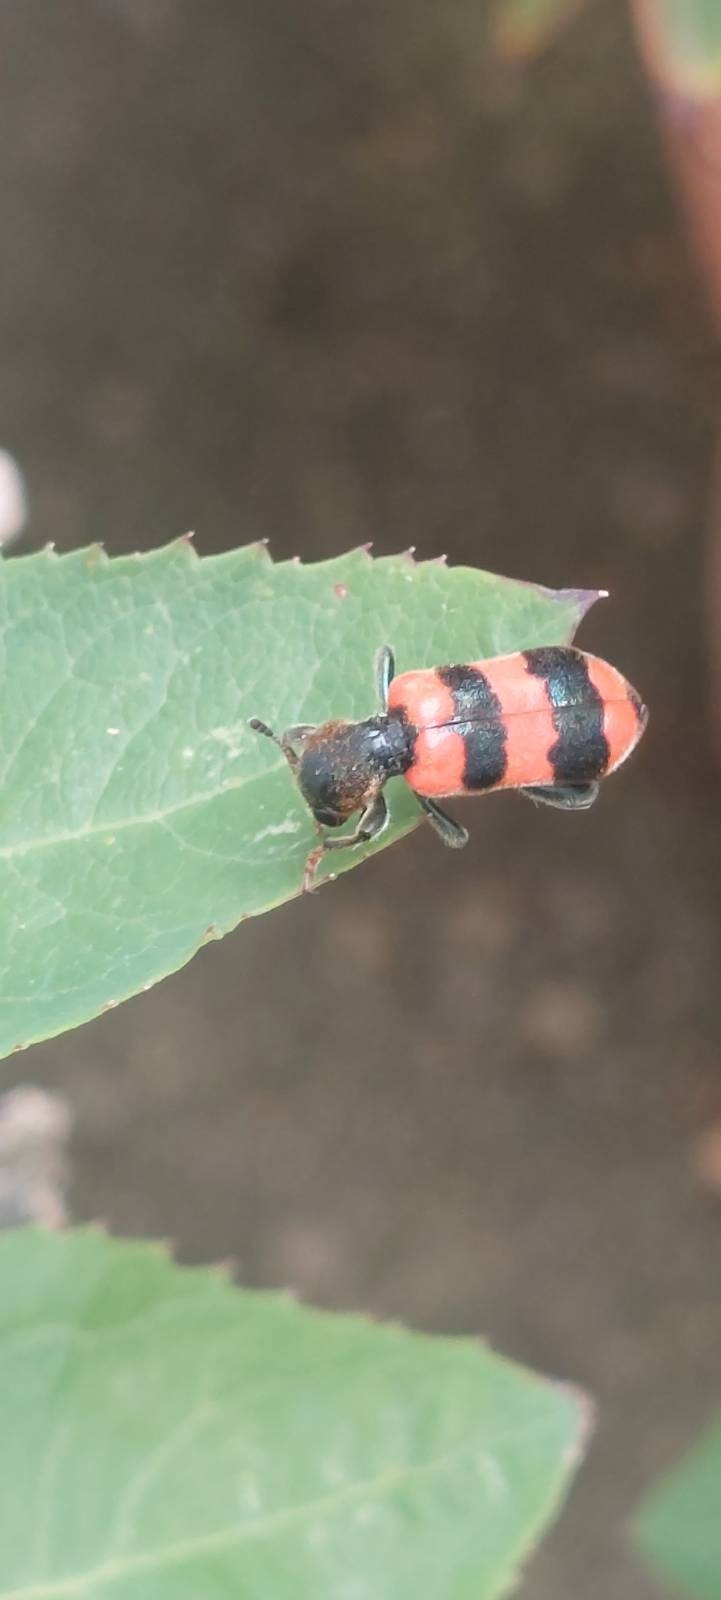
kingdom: Animalia
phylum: Arthropoda
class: Insecta
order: Coleoptera
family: Cleridae
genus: Trichodes
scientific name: Trichodes apiarius
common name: Bee-eating beetle
